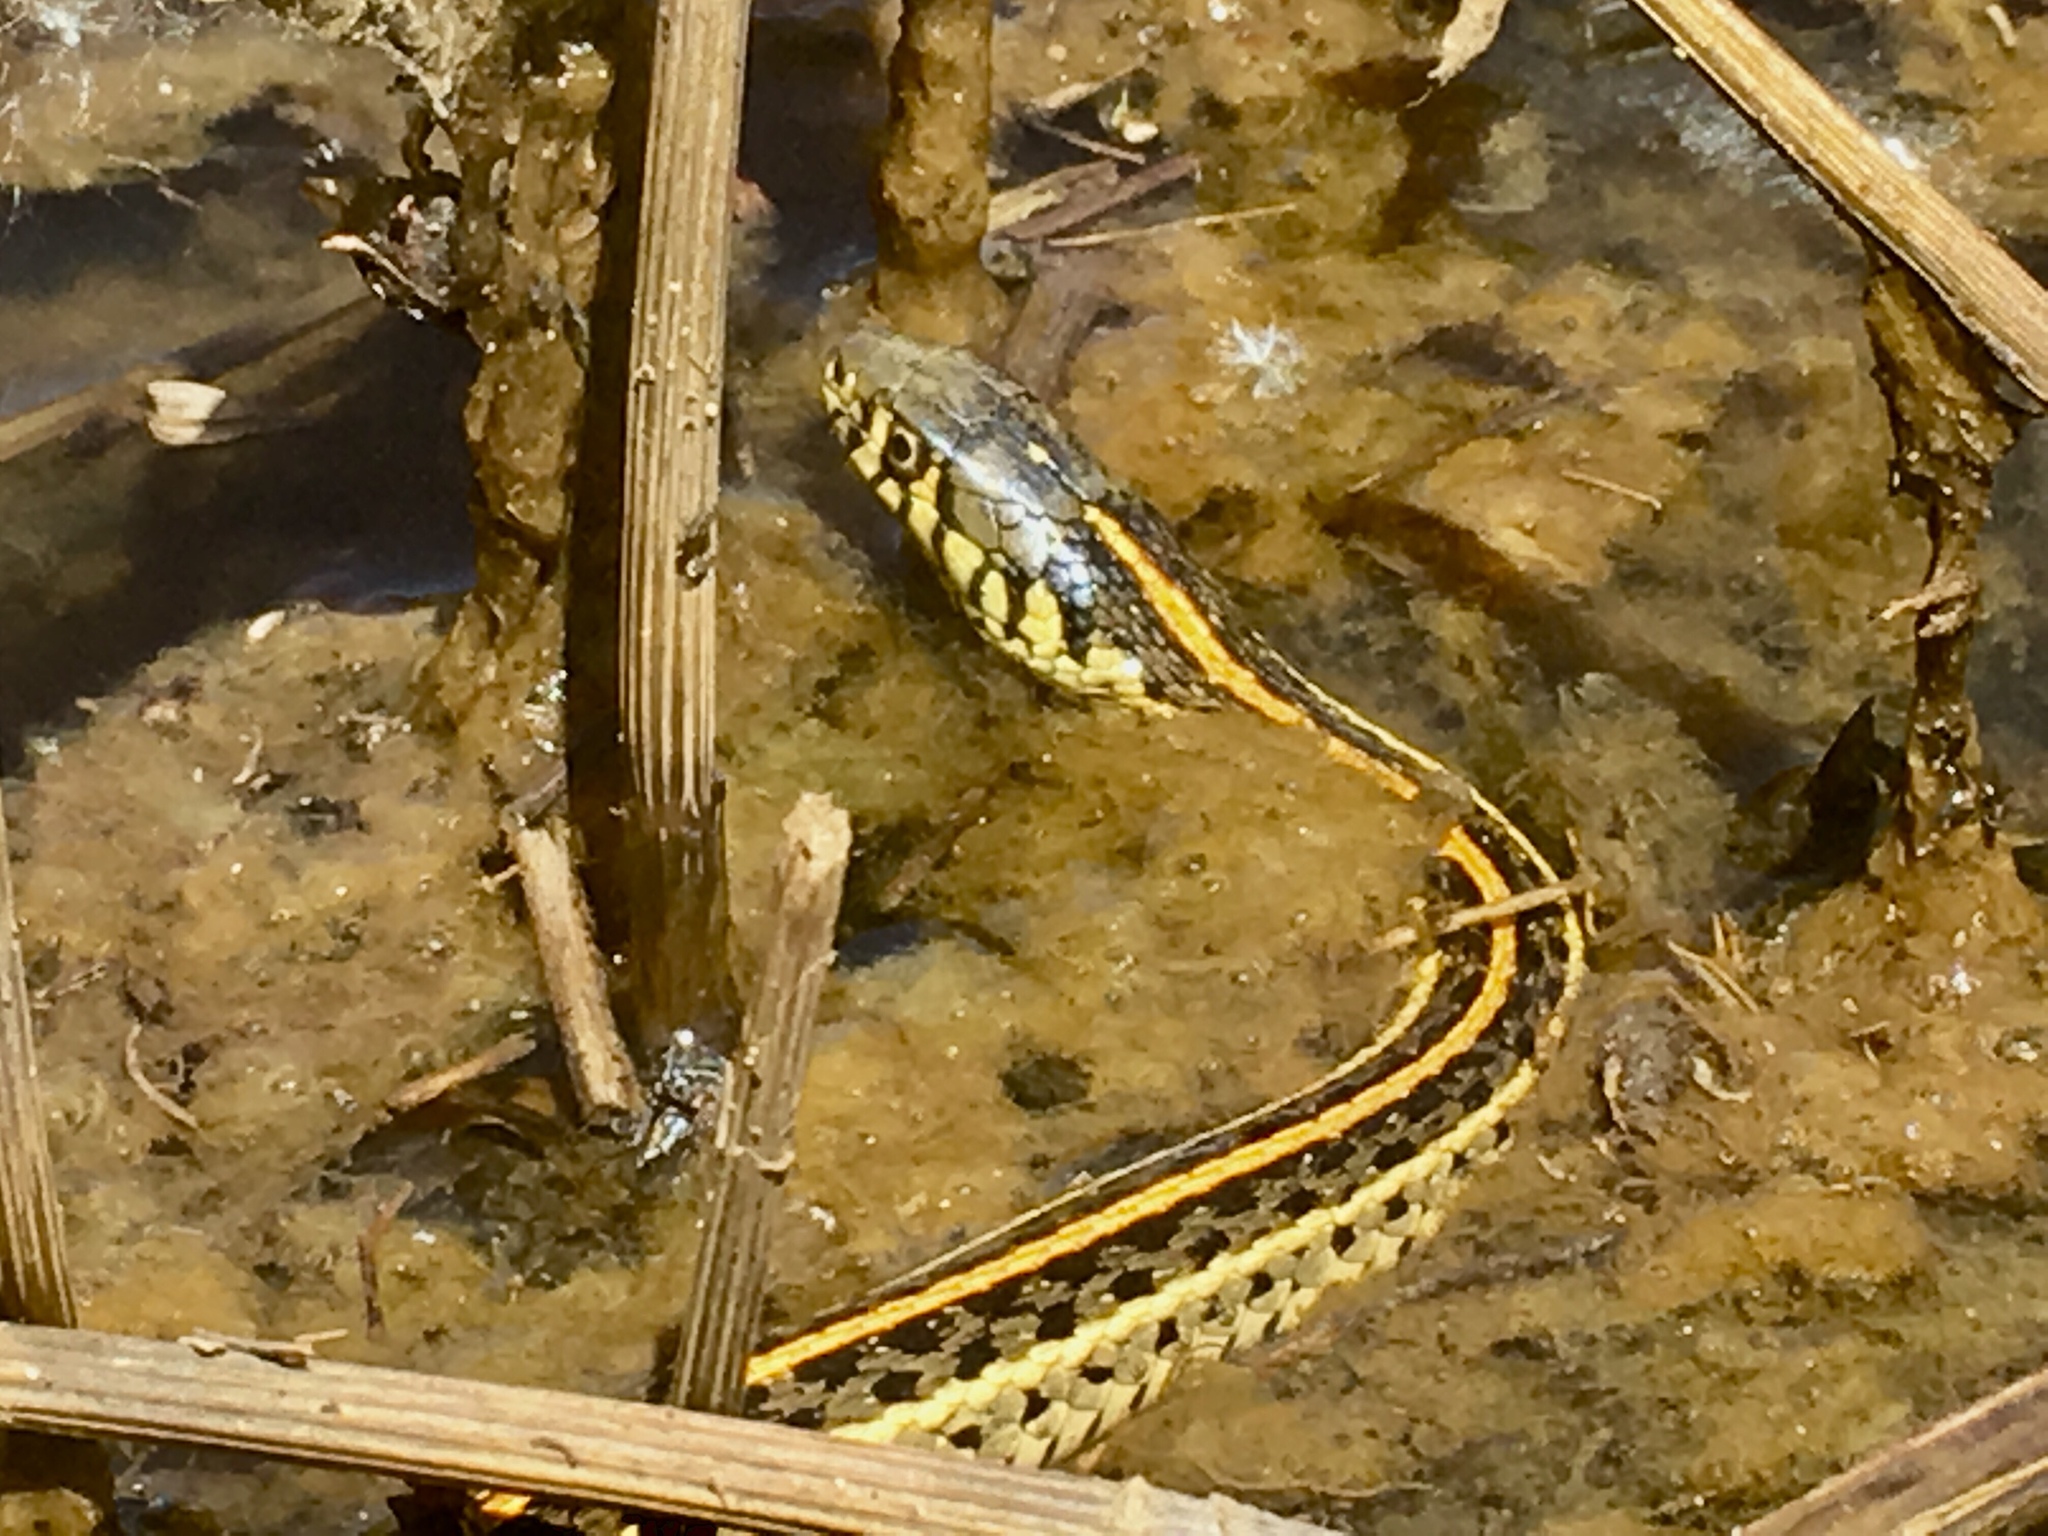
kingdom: Animalia
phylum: Chordata
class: Squamata
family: Colubridae
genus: Thamnophis
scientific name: Thamnophis radix
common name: Plains garter snake
